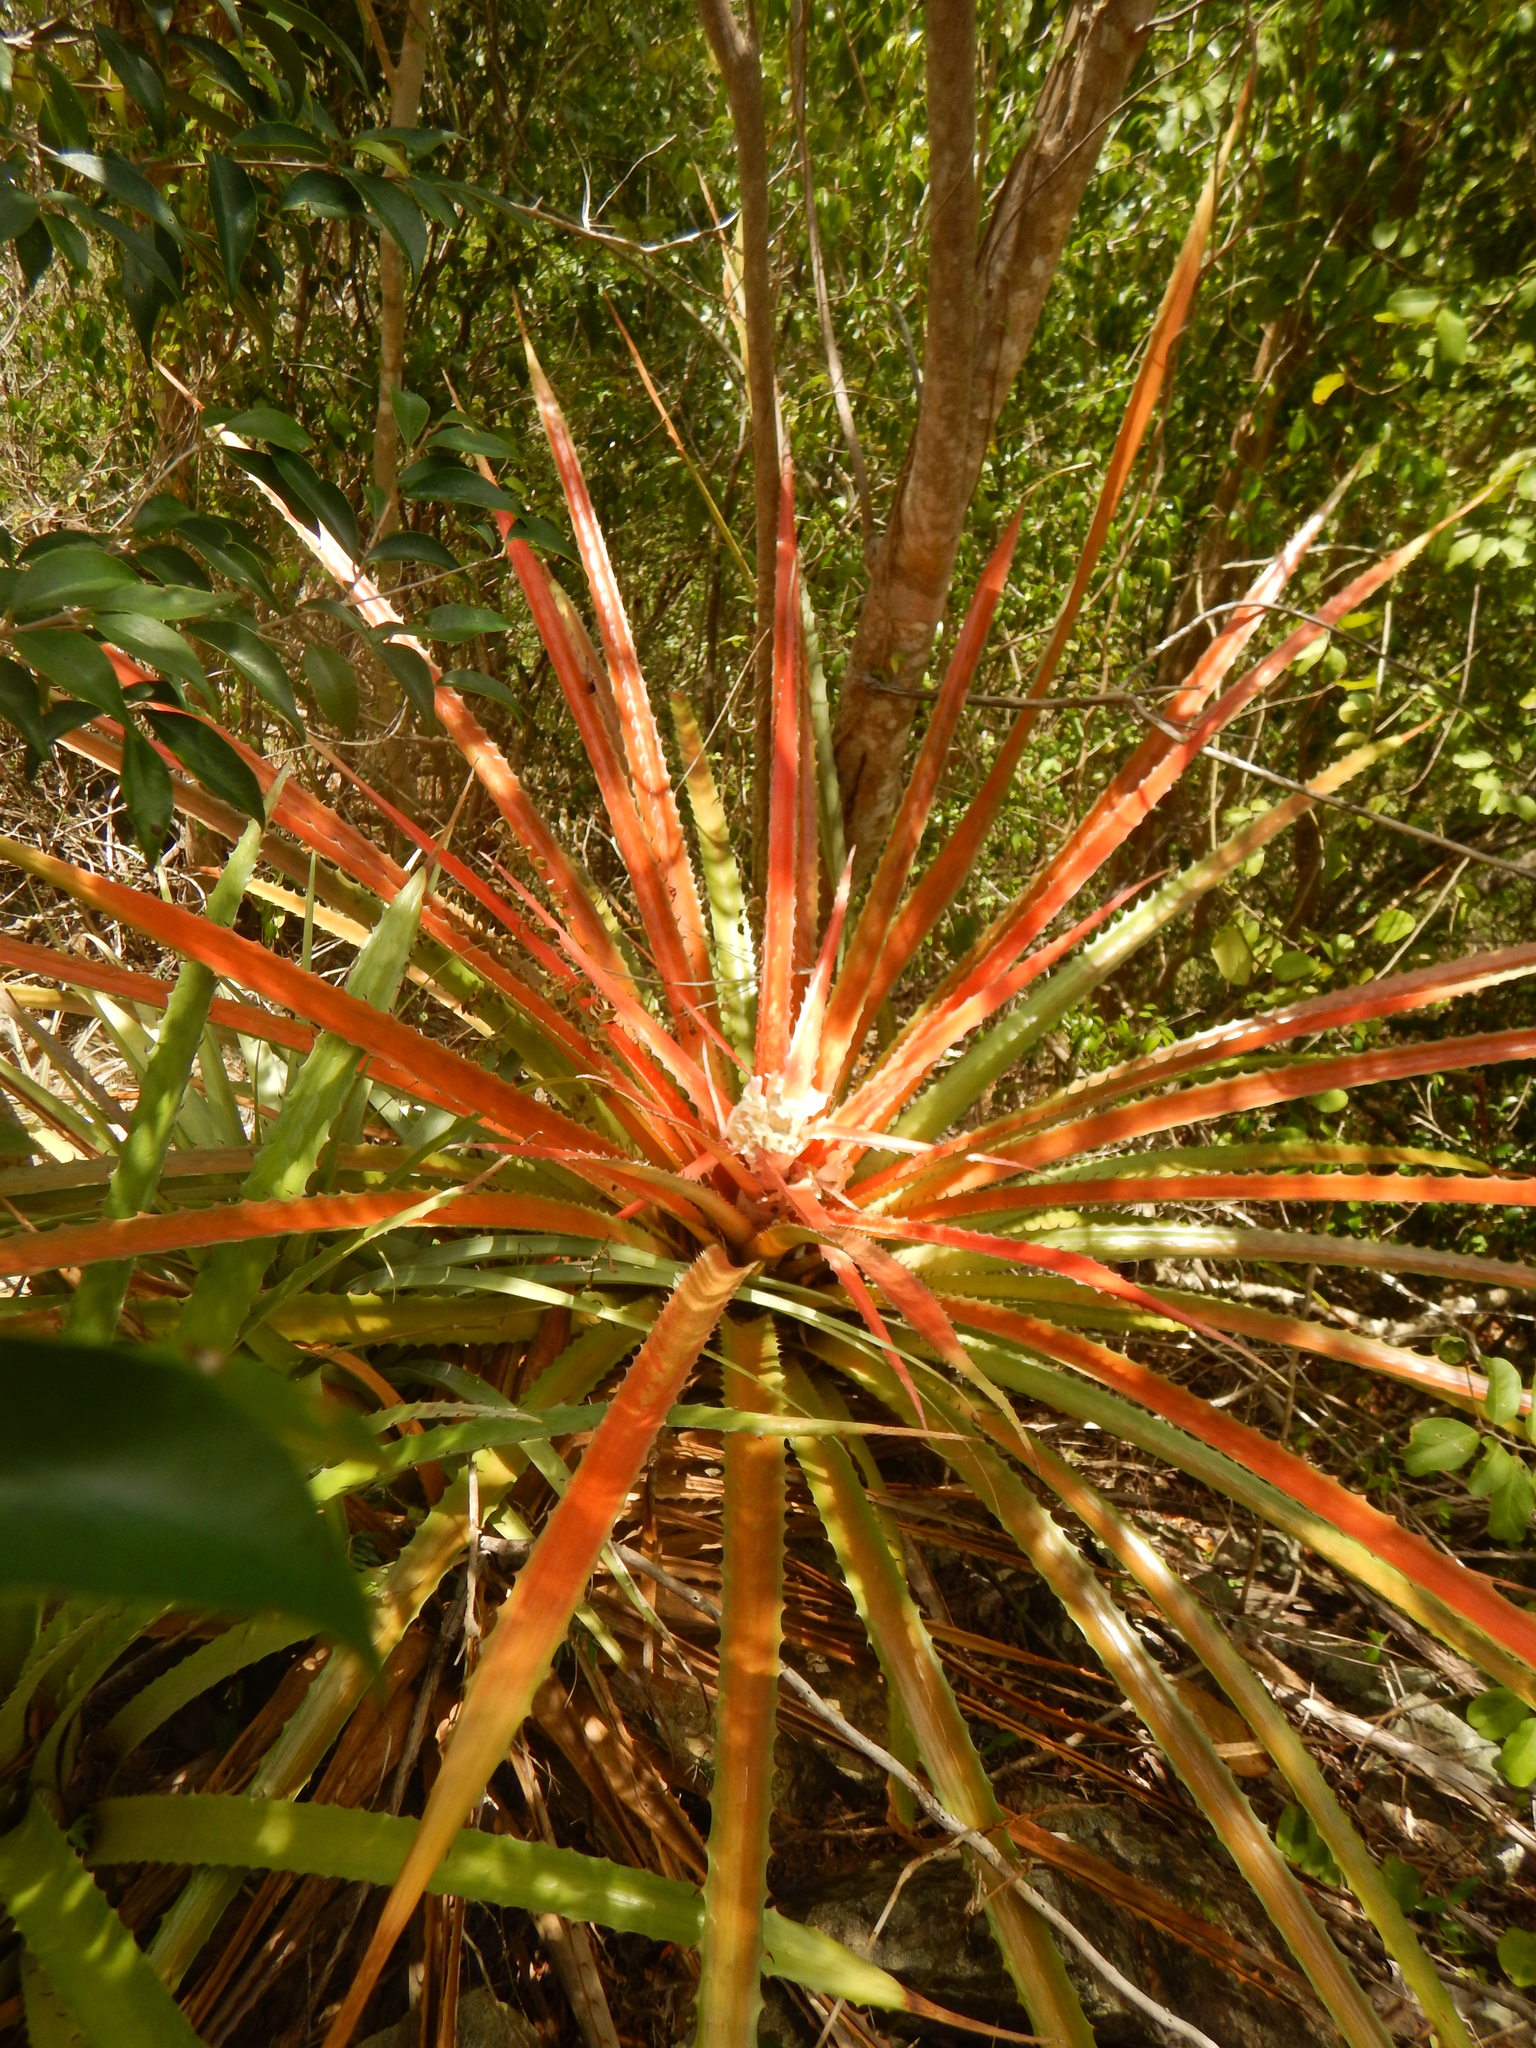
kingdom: Plantae
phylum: Tracheophyta
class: Liliopsida
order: Poales
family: Bromeliaceae
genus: Bromelia
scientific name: Bromelia pinguin
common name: Pinguin
